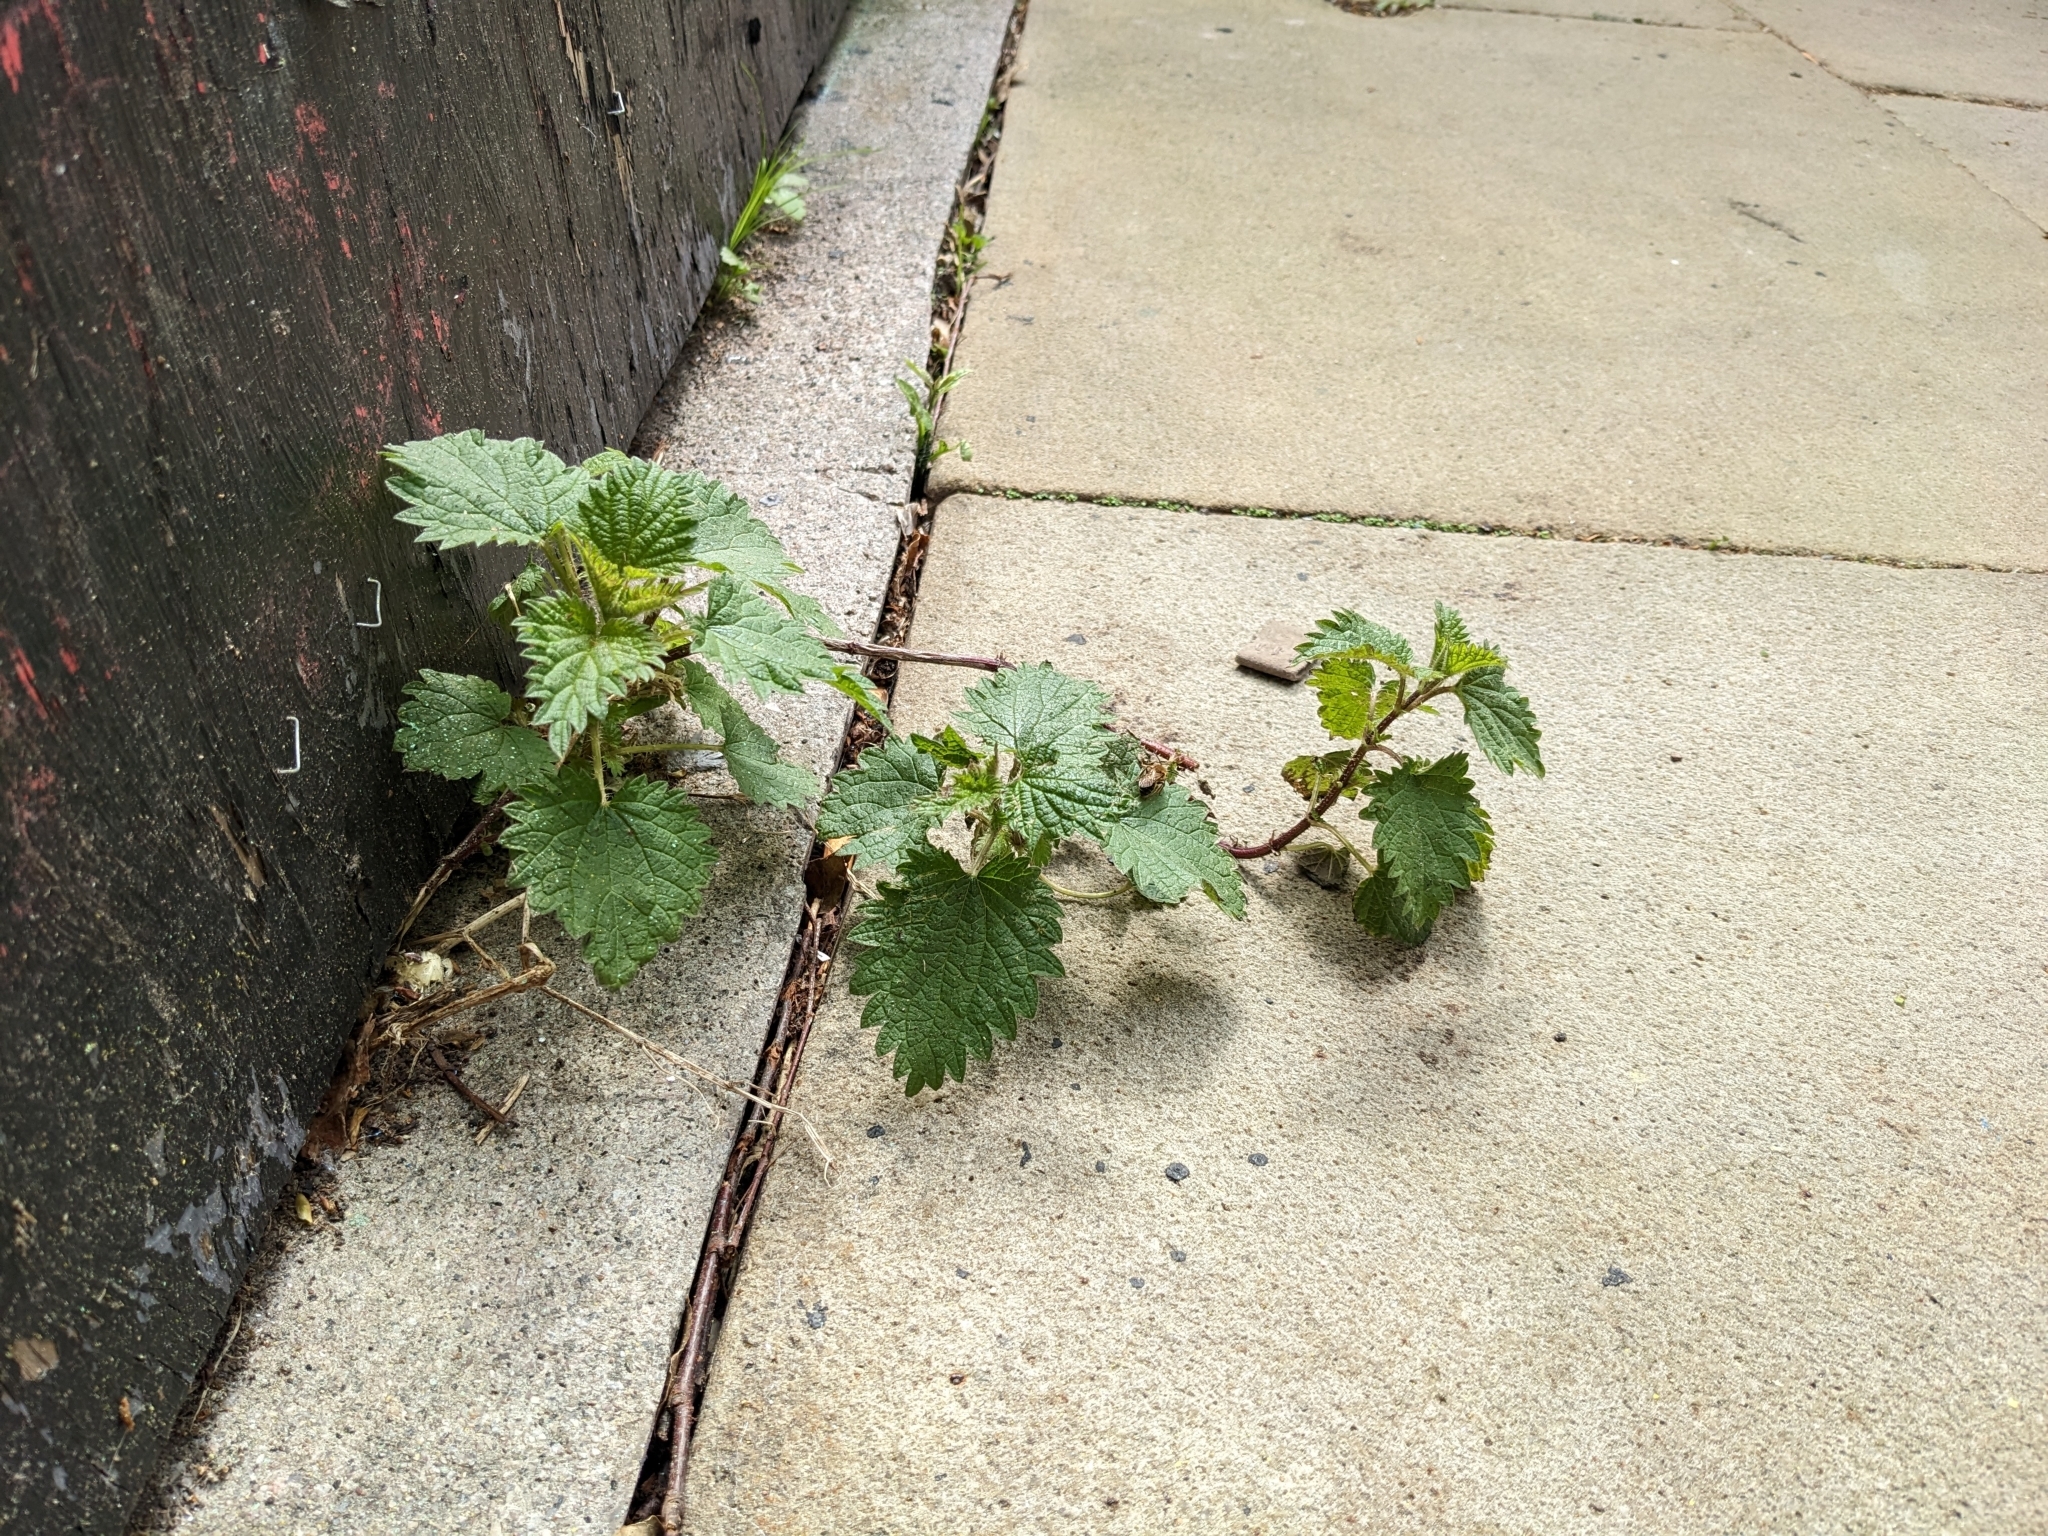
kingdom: Plantae
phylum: Tracheophyta
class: Magnoliopsida
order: Rosales
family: Urticaceae
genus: Urtica
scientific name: Urtica dioica
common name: Common nettle
